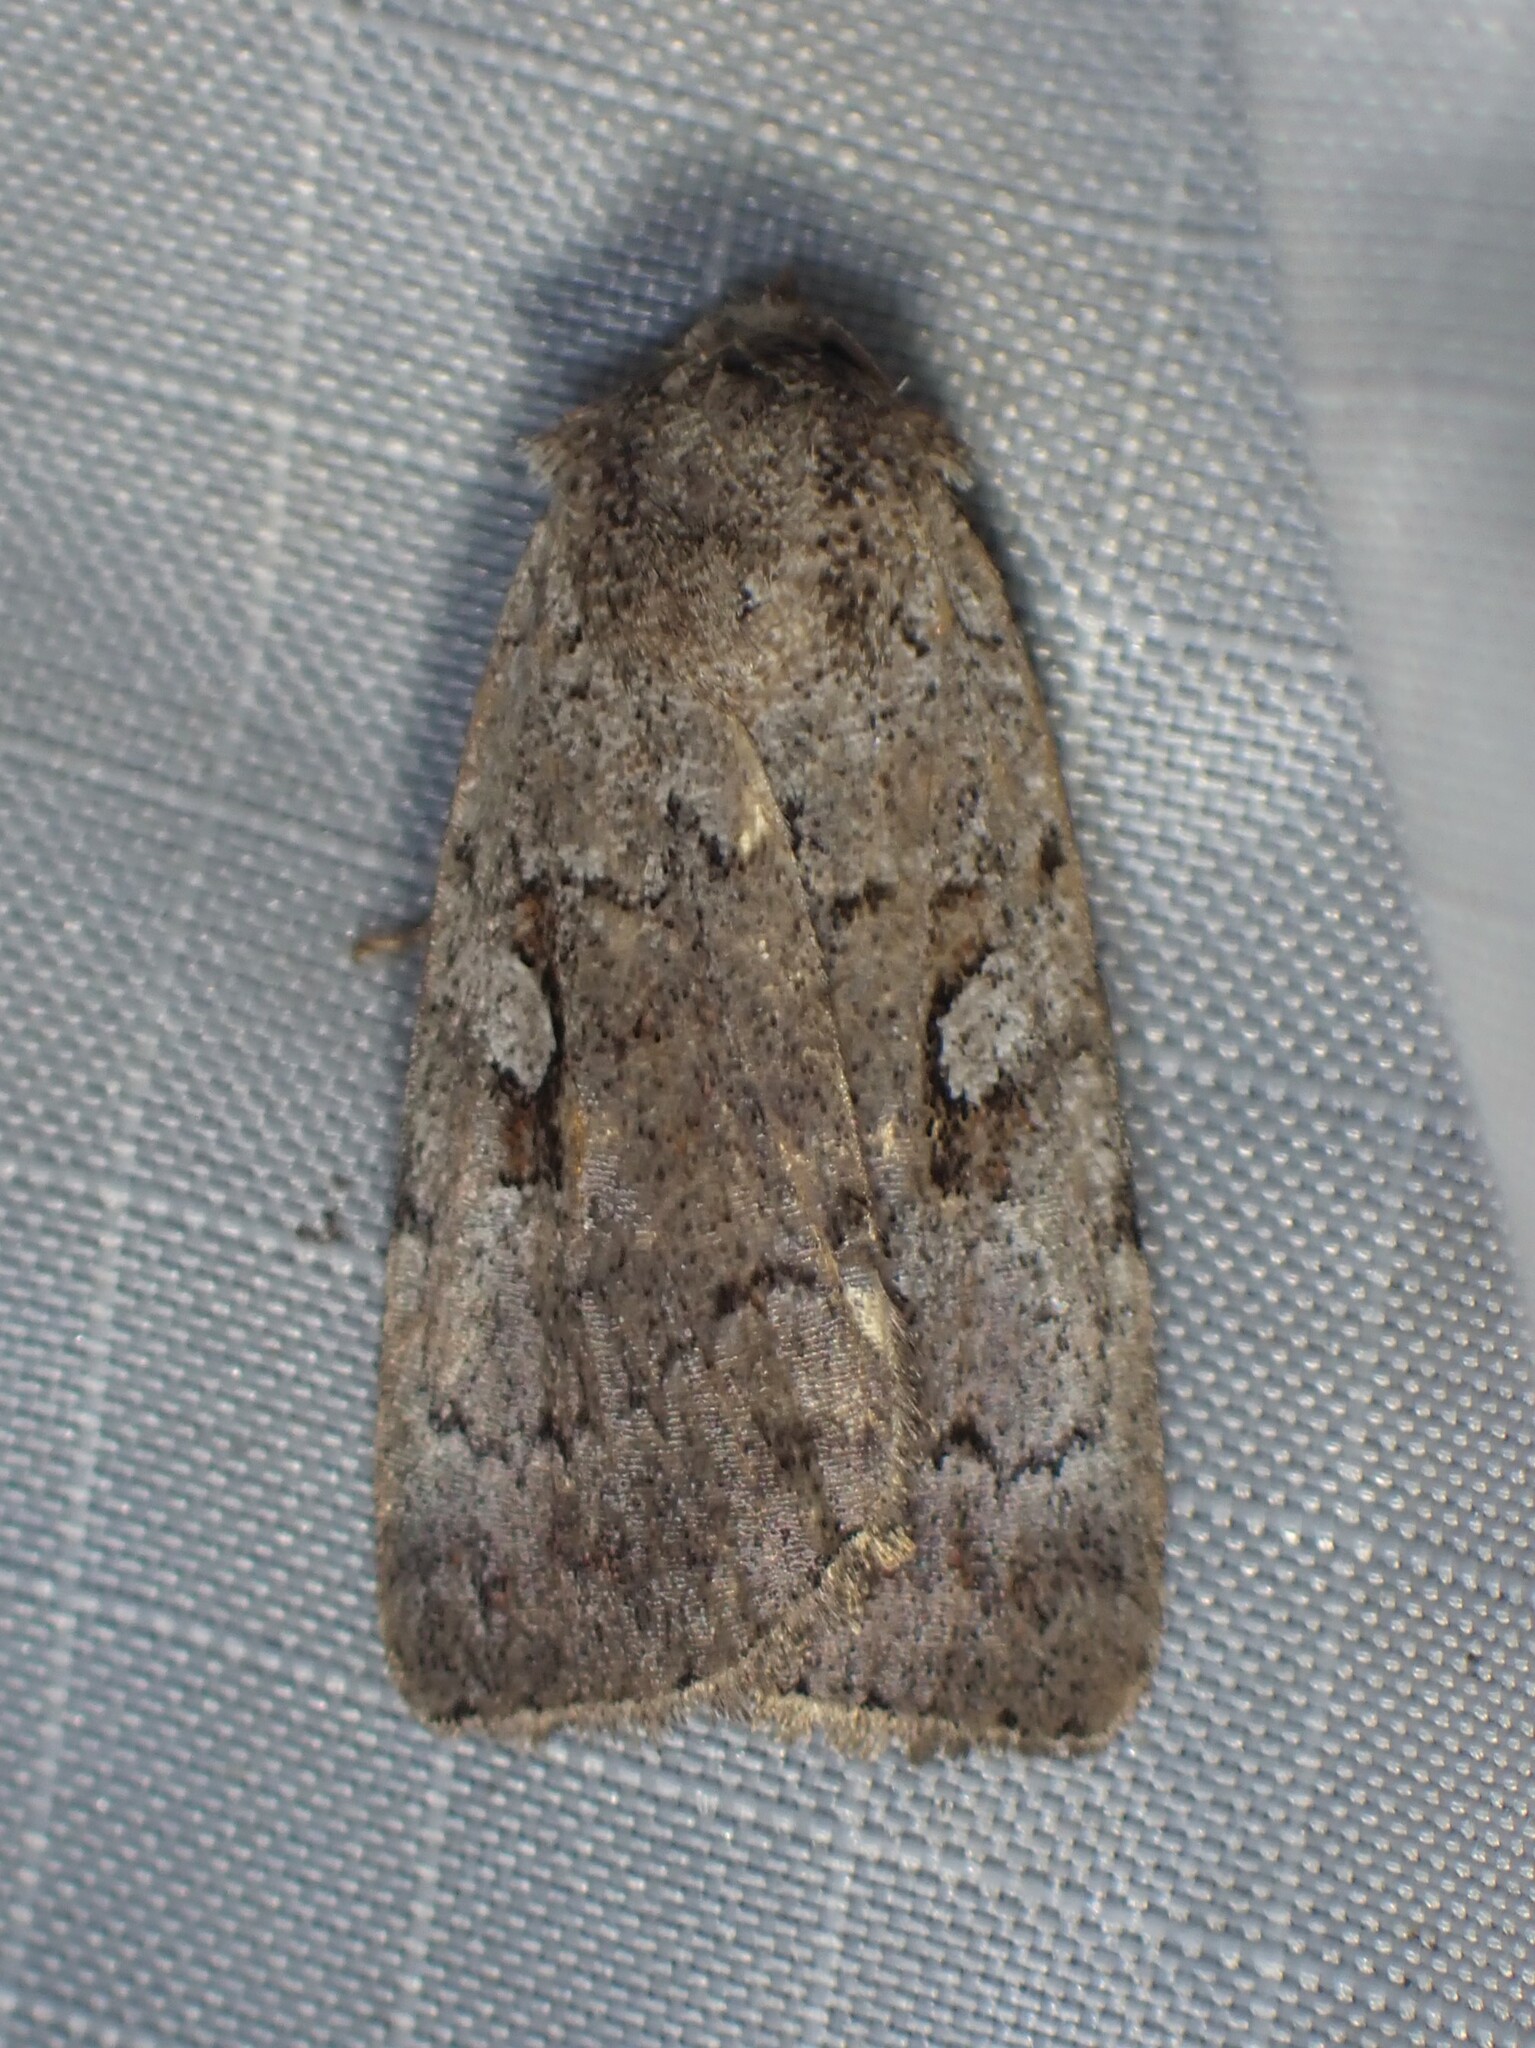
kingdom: Animalia
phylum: Arthropoda
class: Insecta
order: Lepidoptera
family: Noctuidae
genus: Coenophila
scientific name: Coenophila opacifrons
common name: Blueberry dart
